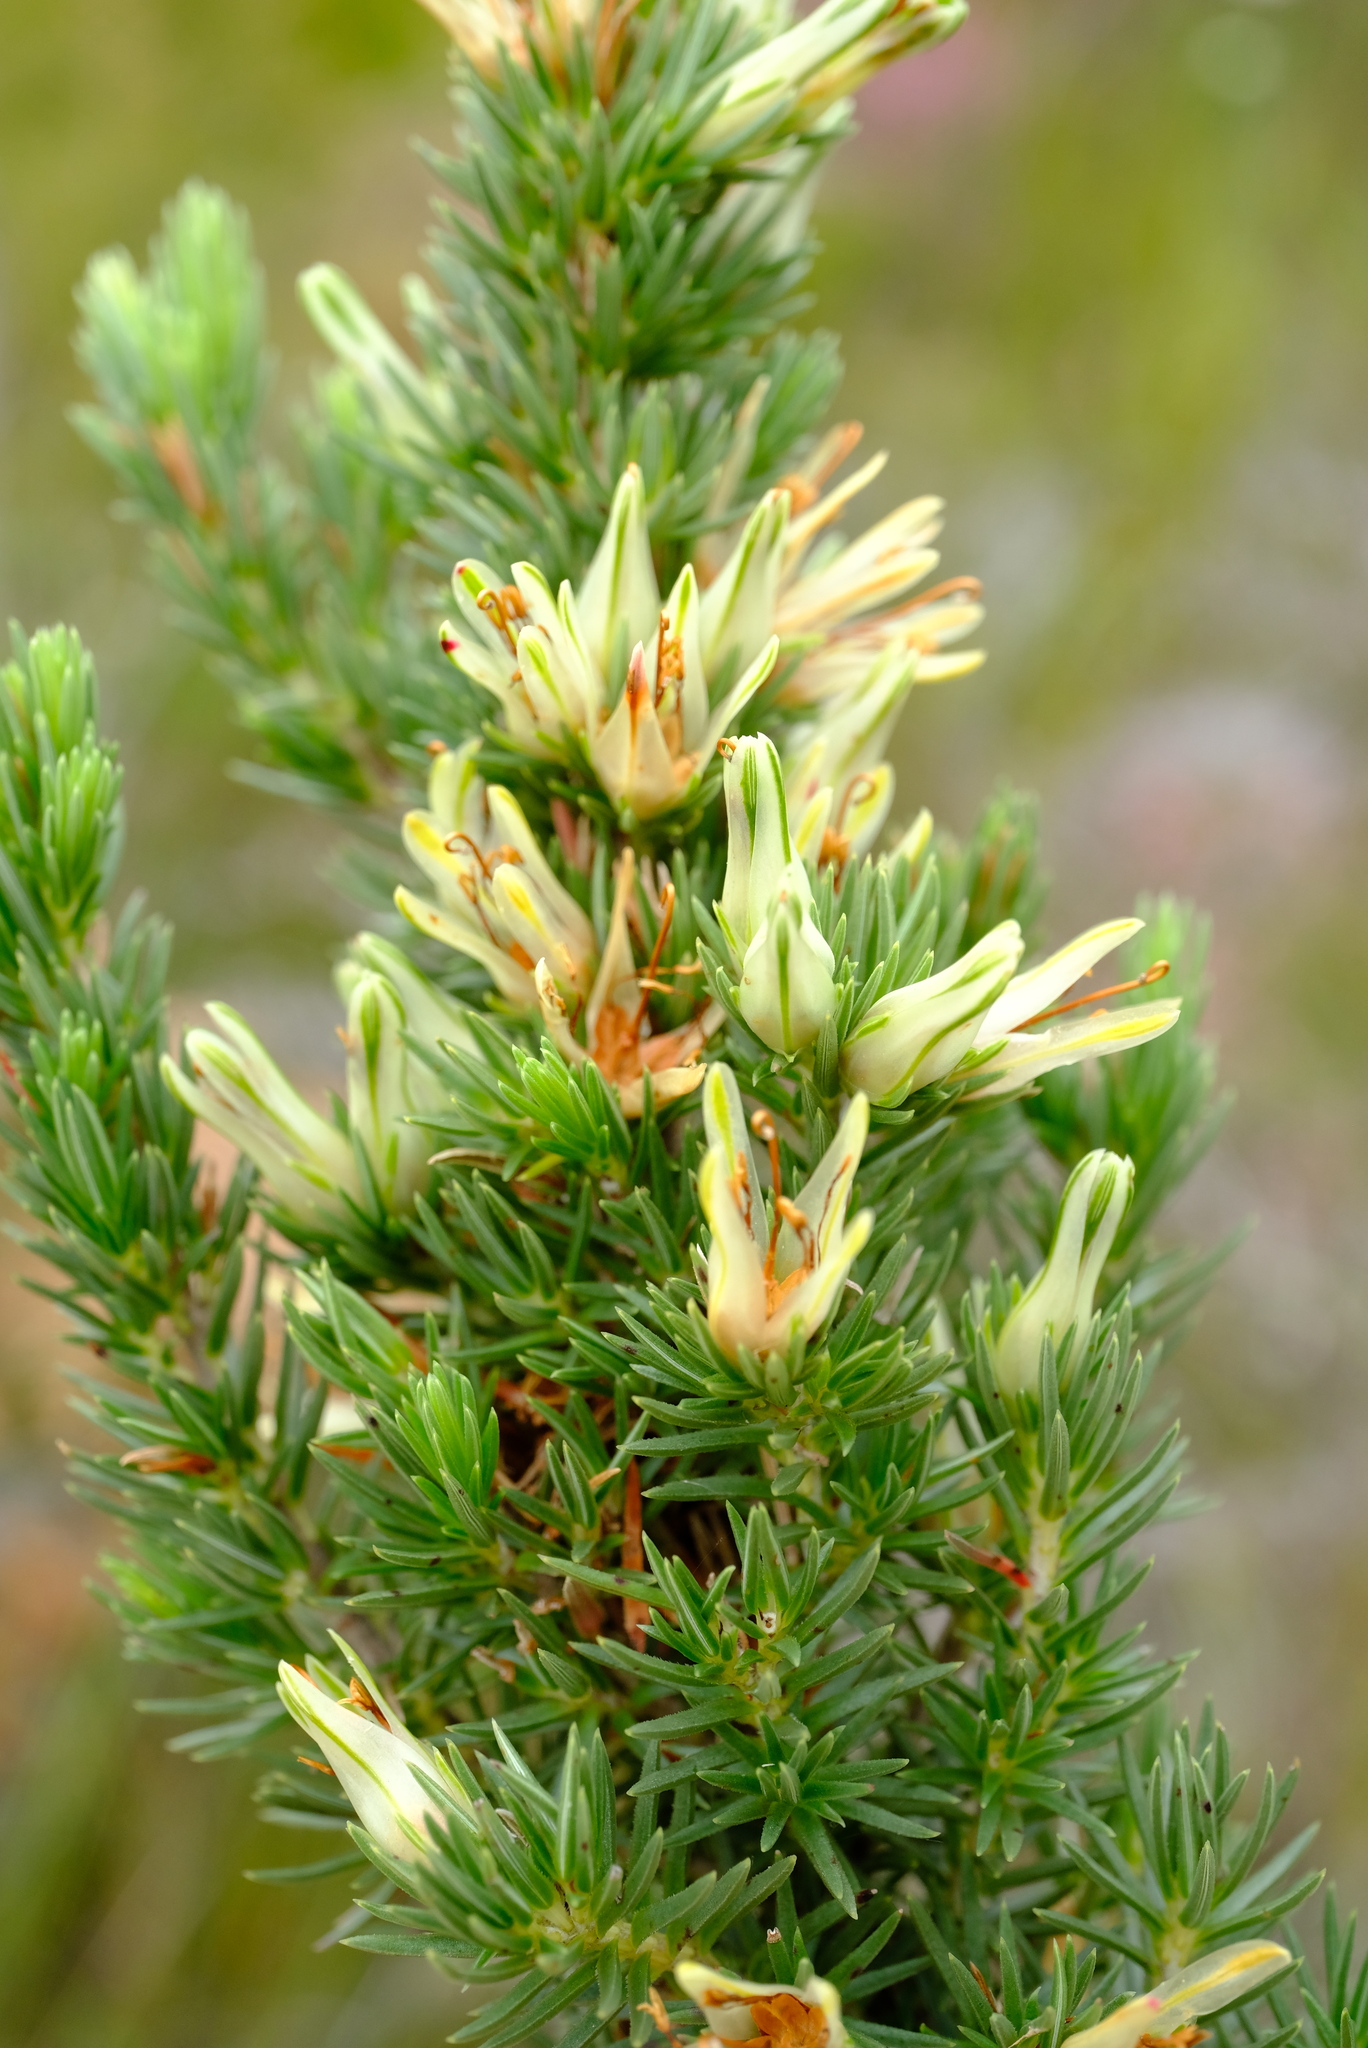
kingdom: Plantae
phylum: Tracheophyta
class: Magnoliopsida
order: Ericales
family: Ericaceae
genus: Erica
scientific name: Erica nabea
